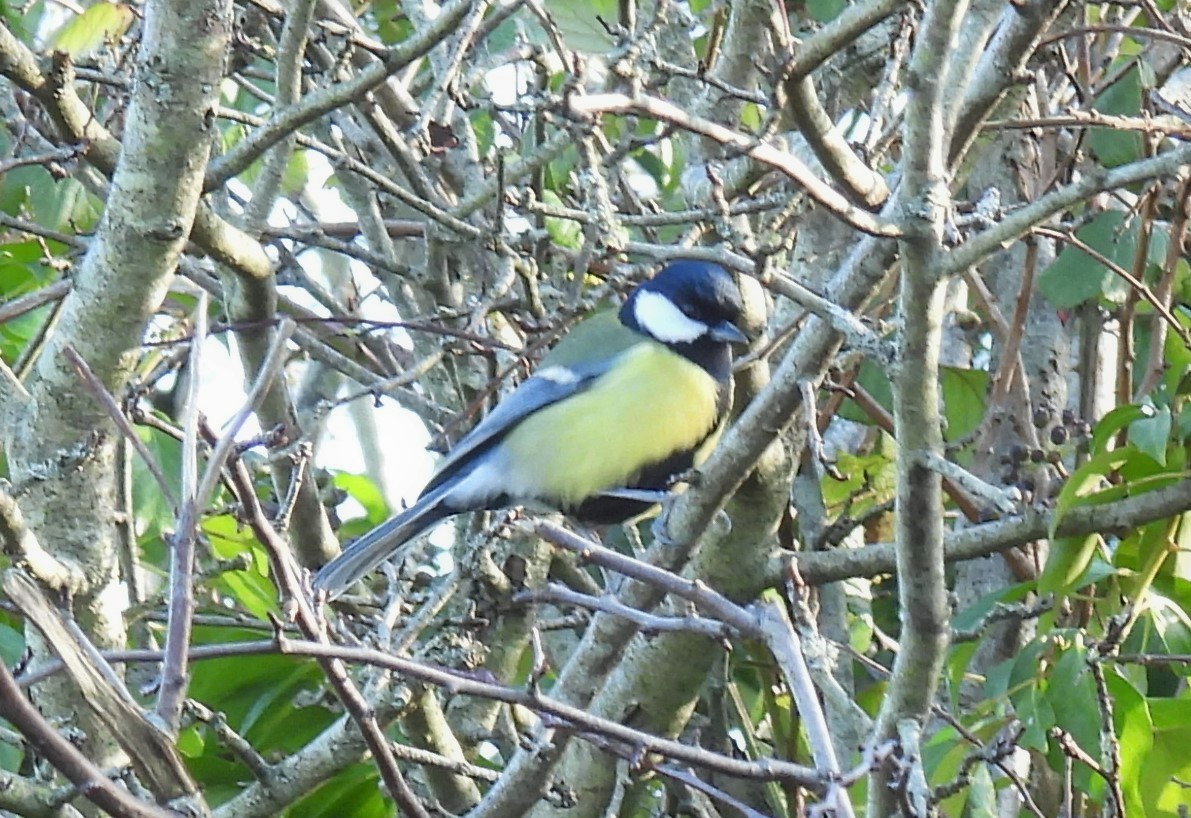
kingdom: Animalia
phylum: Chordata
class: Aves
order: Passeriformes
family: Paridae
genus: Parus
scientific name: Parus major
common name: Great tit
